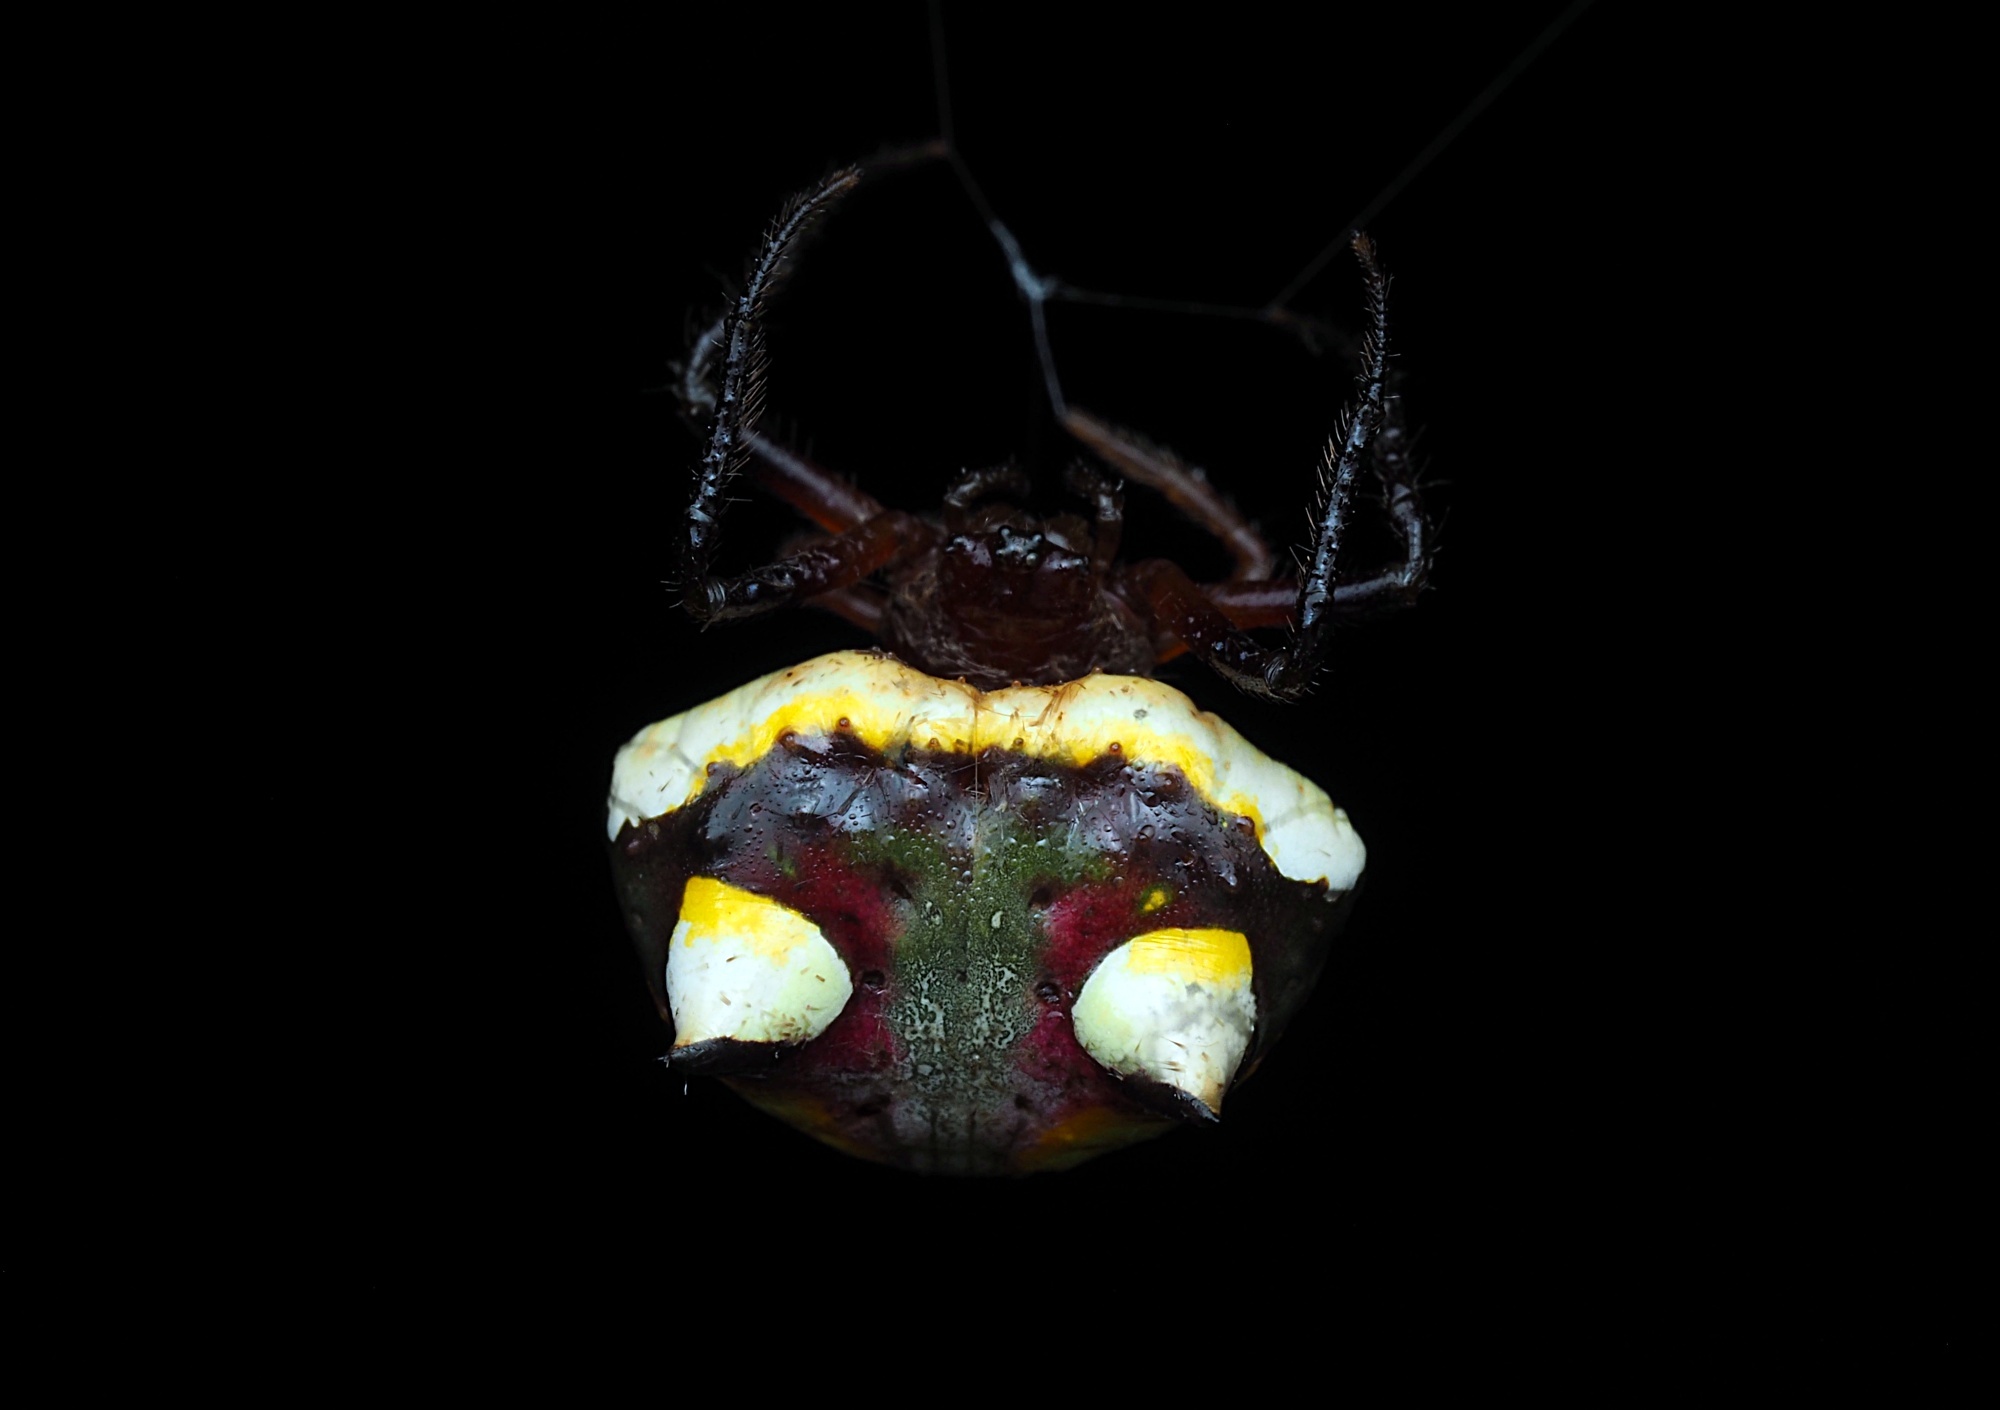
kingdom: Animalia
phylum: Arthropoda
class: Arachnida
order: Araneae
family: Araneidae
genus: Poecilopachys
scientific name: Poecilopachys australasia
